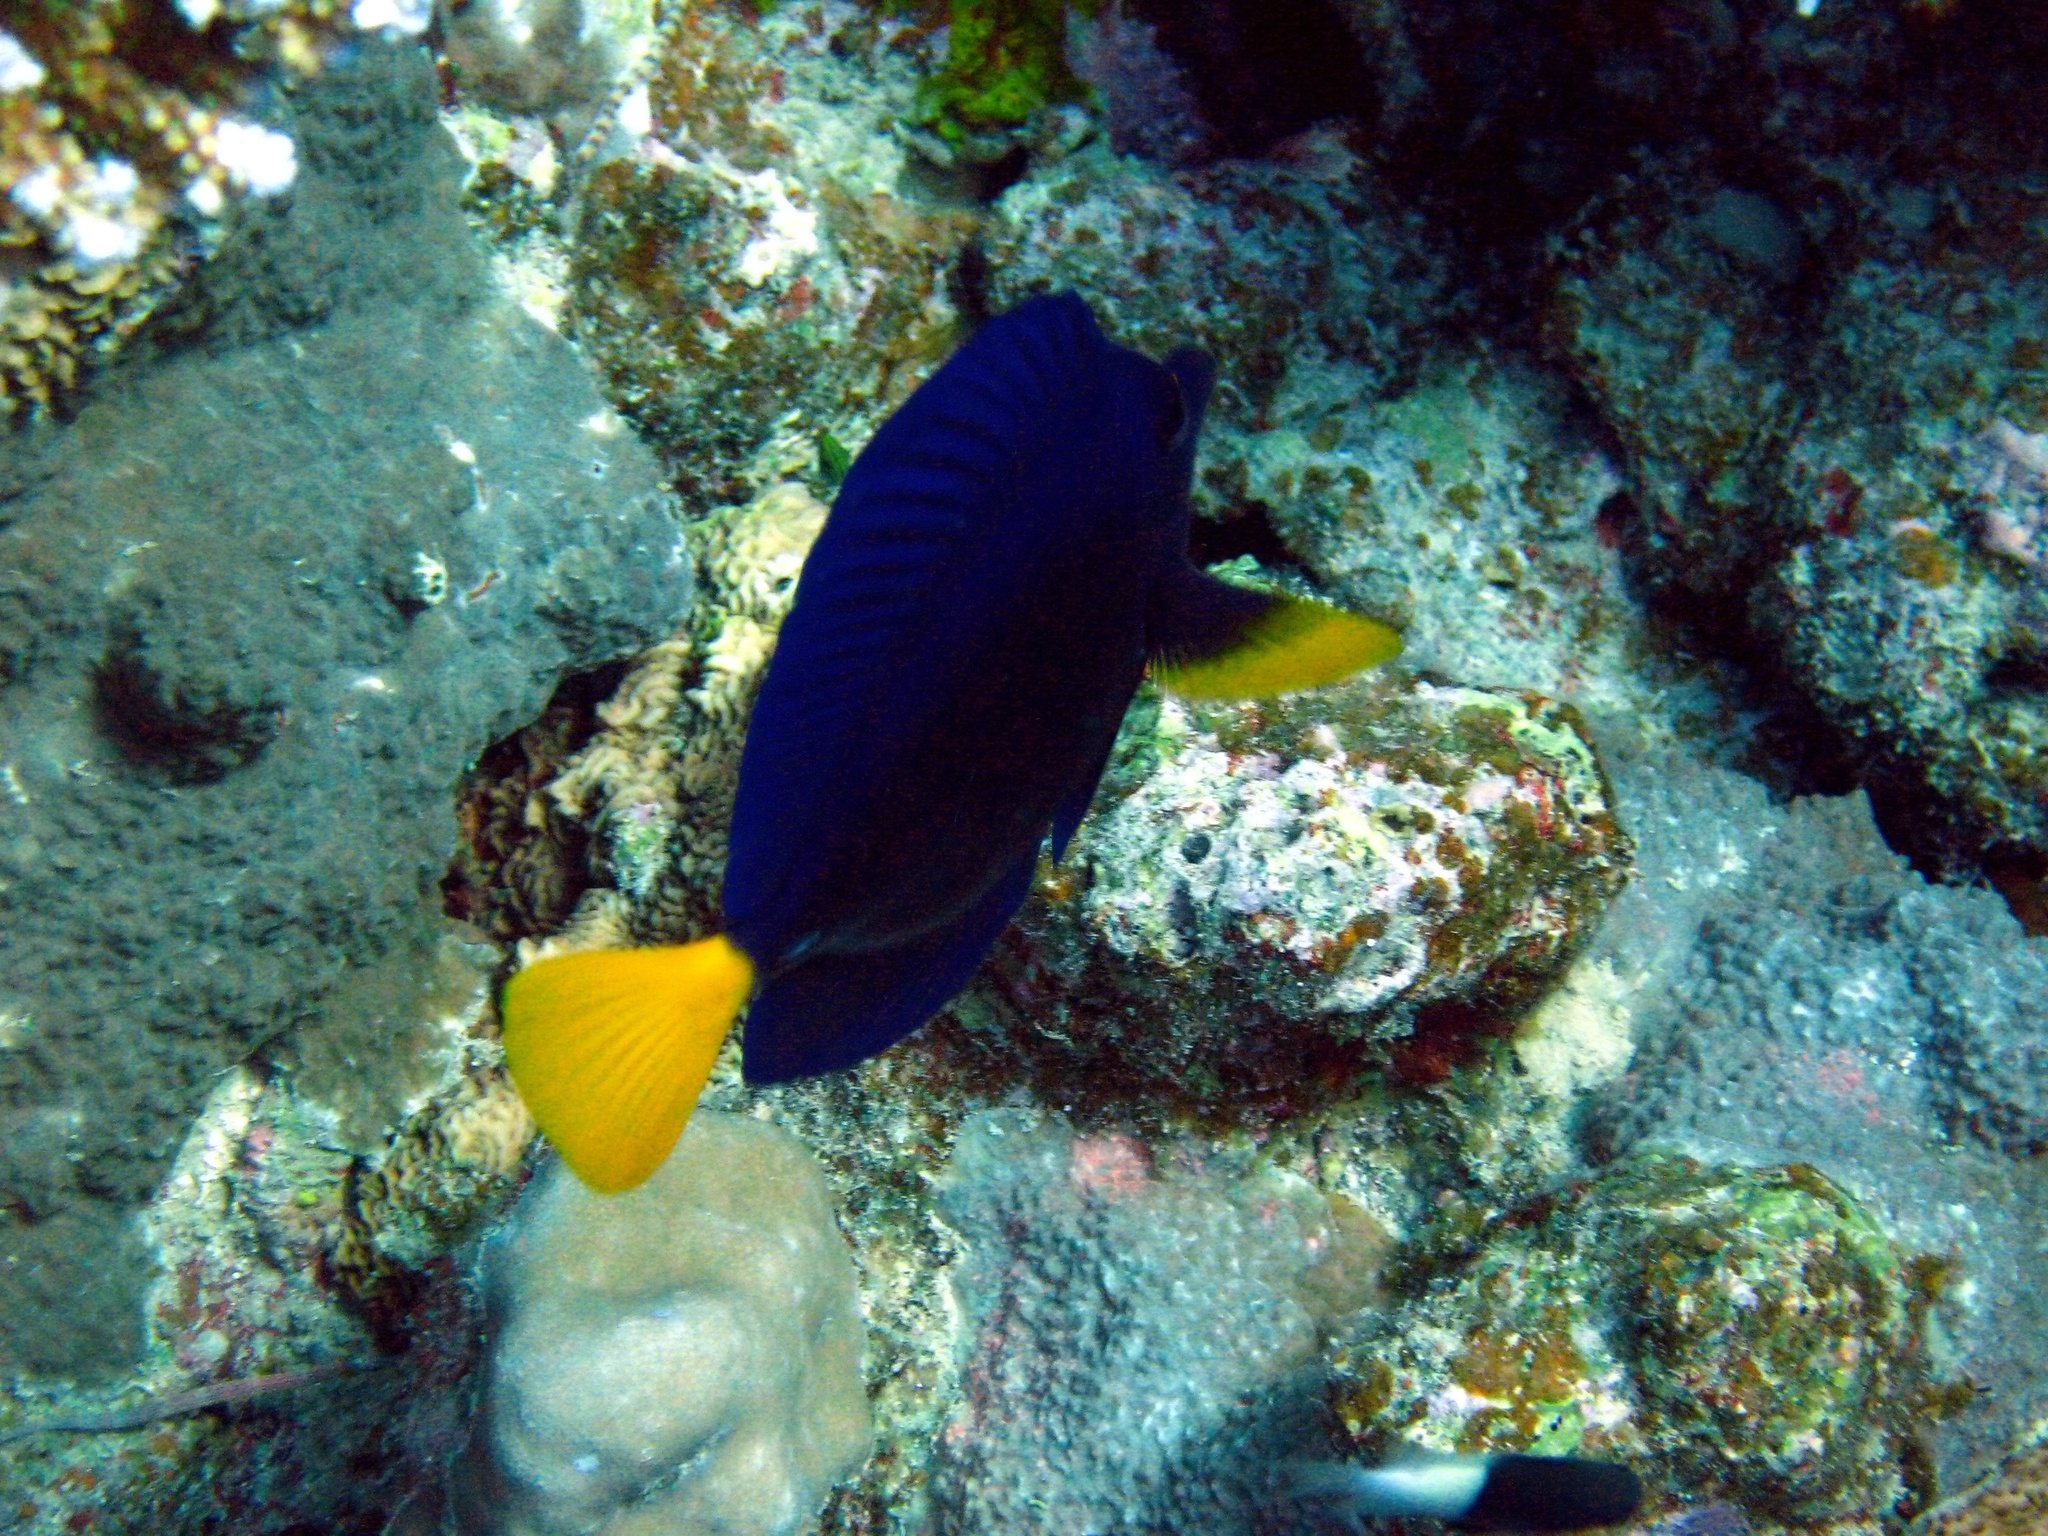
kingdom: Animalia
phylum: Chordata
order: Perciformes
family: Acanthuridae
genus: Zebrasoma
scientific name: Zebrasoma xanthurum
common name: Purple tang
